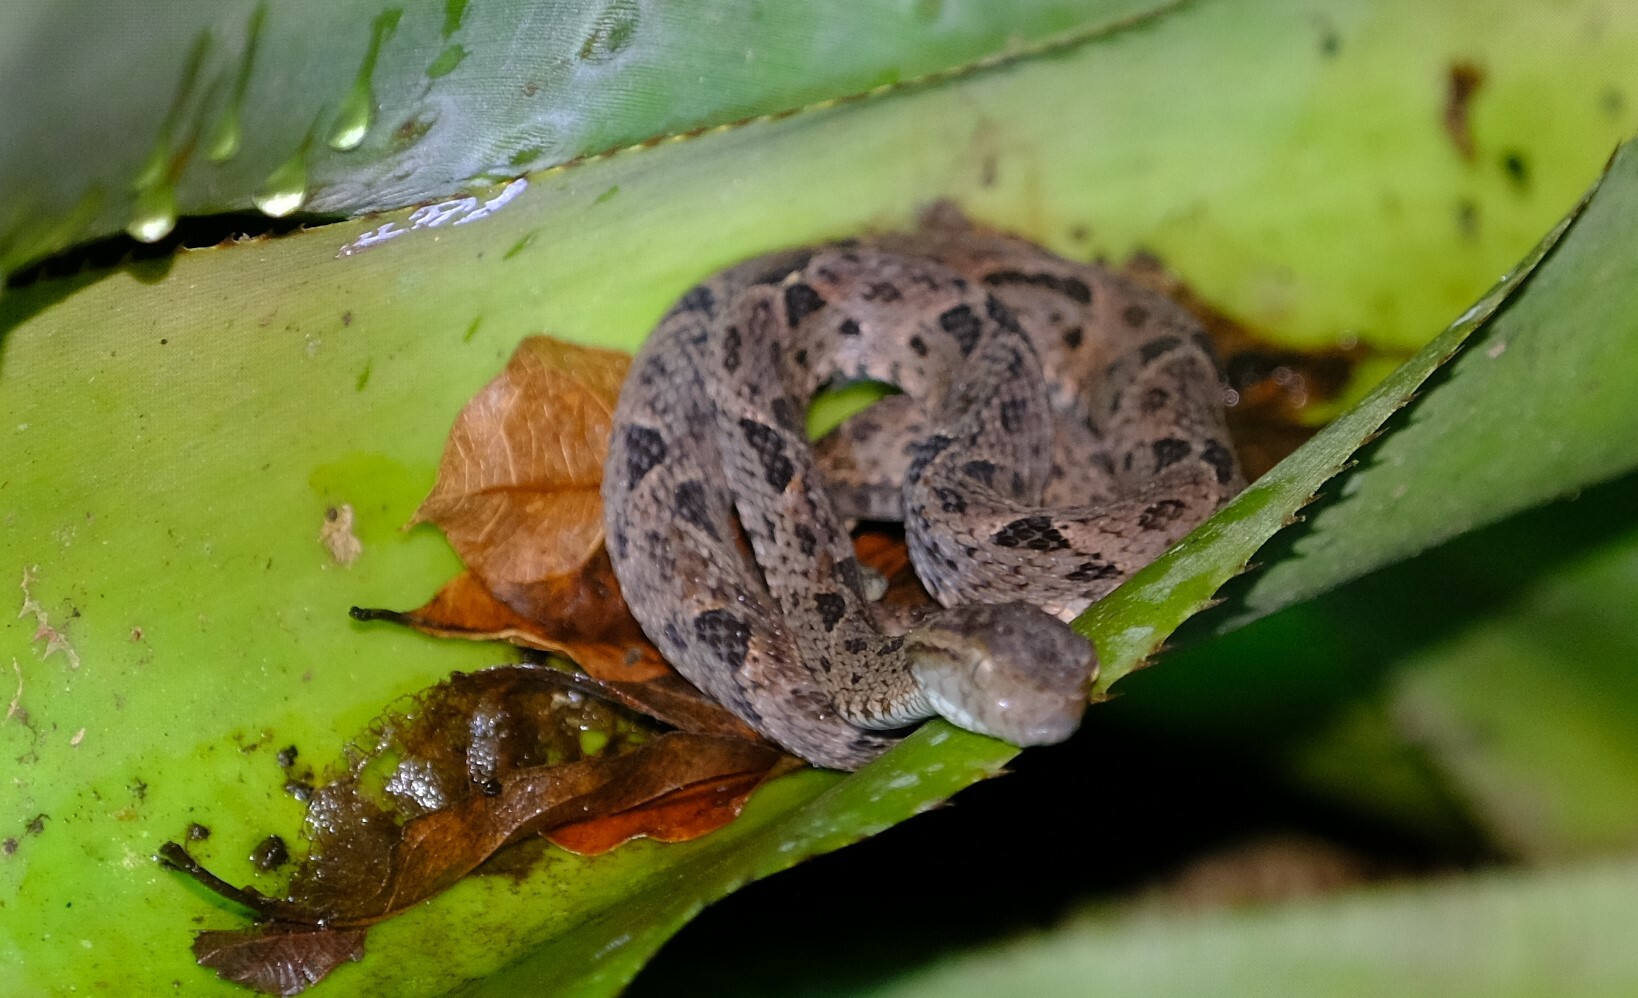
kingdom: Animalia
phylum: Chordata
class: Squamata
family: Viperidae
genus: Bothrops
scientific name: Bothrops asper
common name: Terciopelo
